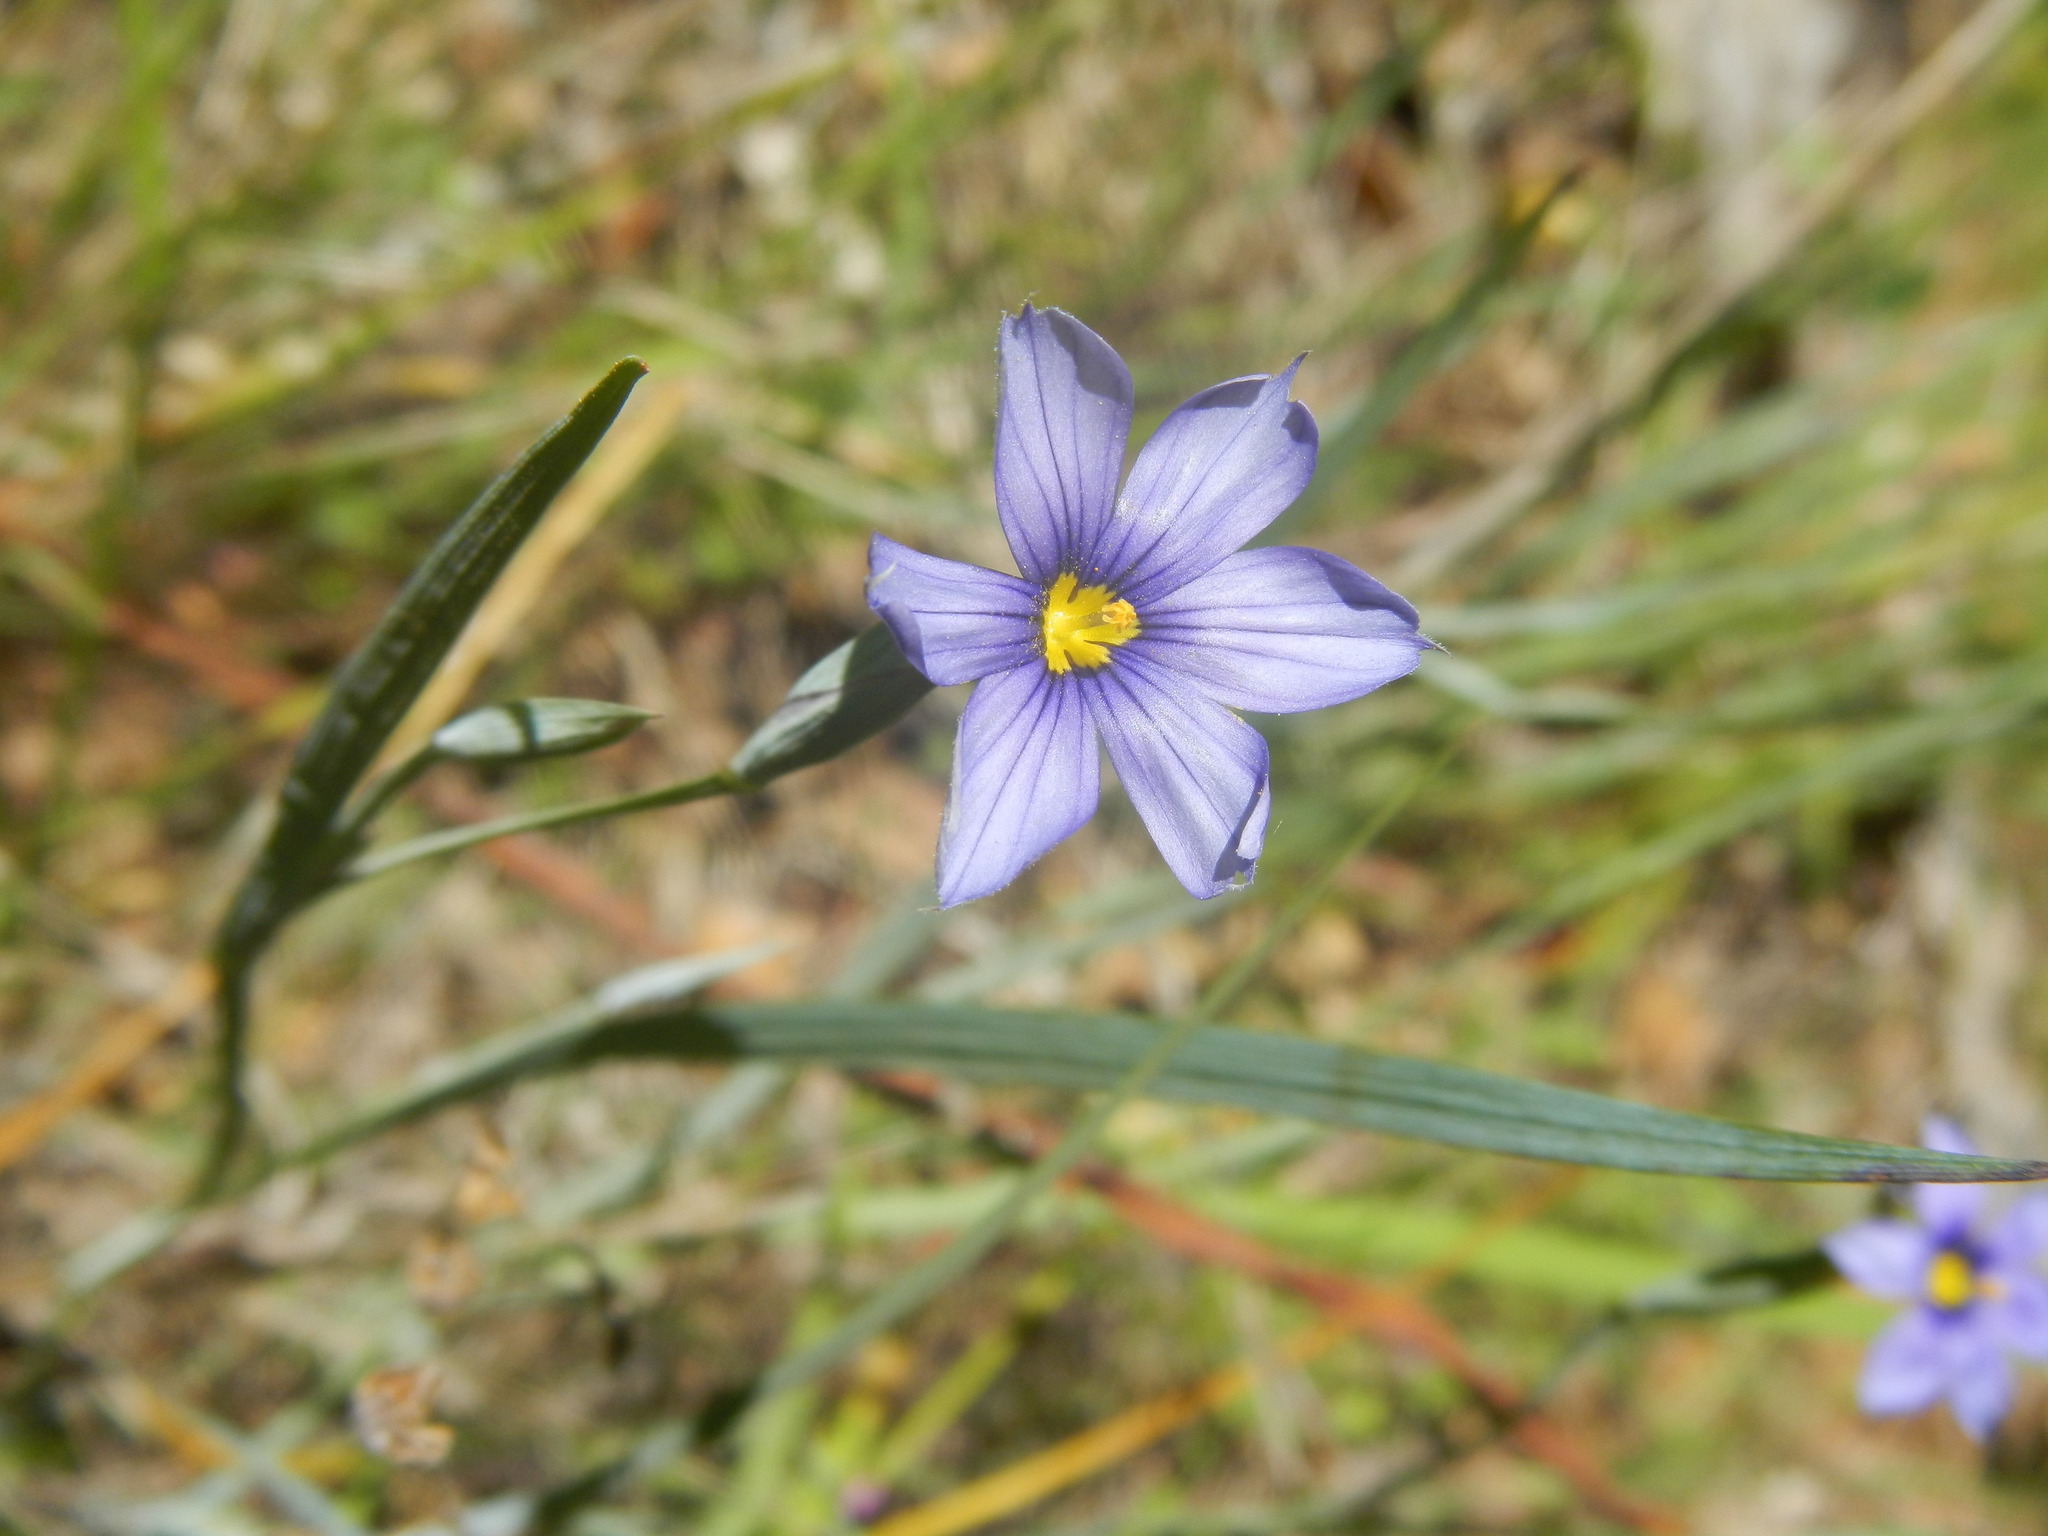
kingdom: Plantae
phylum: Tracheophyta
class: Liliopsida
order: Asparagales
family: Iridaceae
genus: Sisyrinchium
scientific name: Sisyrinchium bellum
